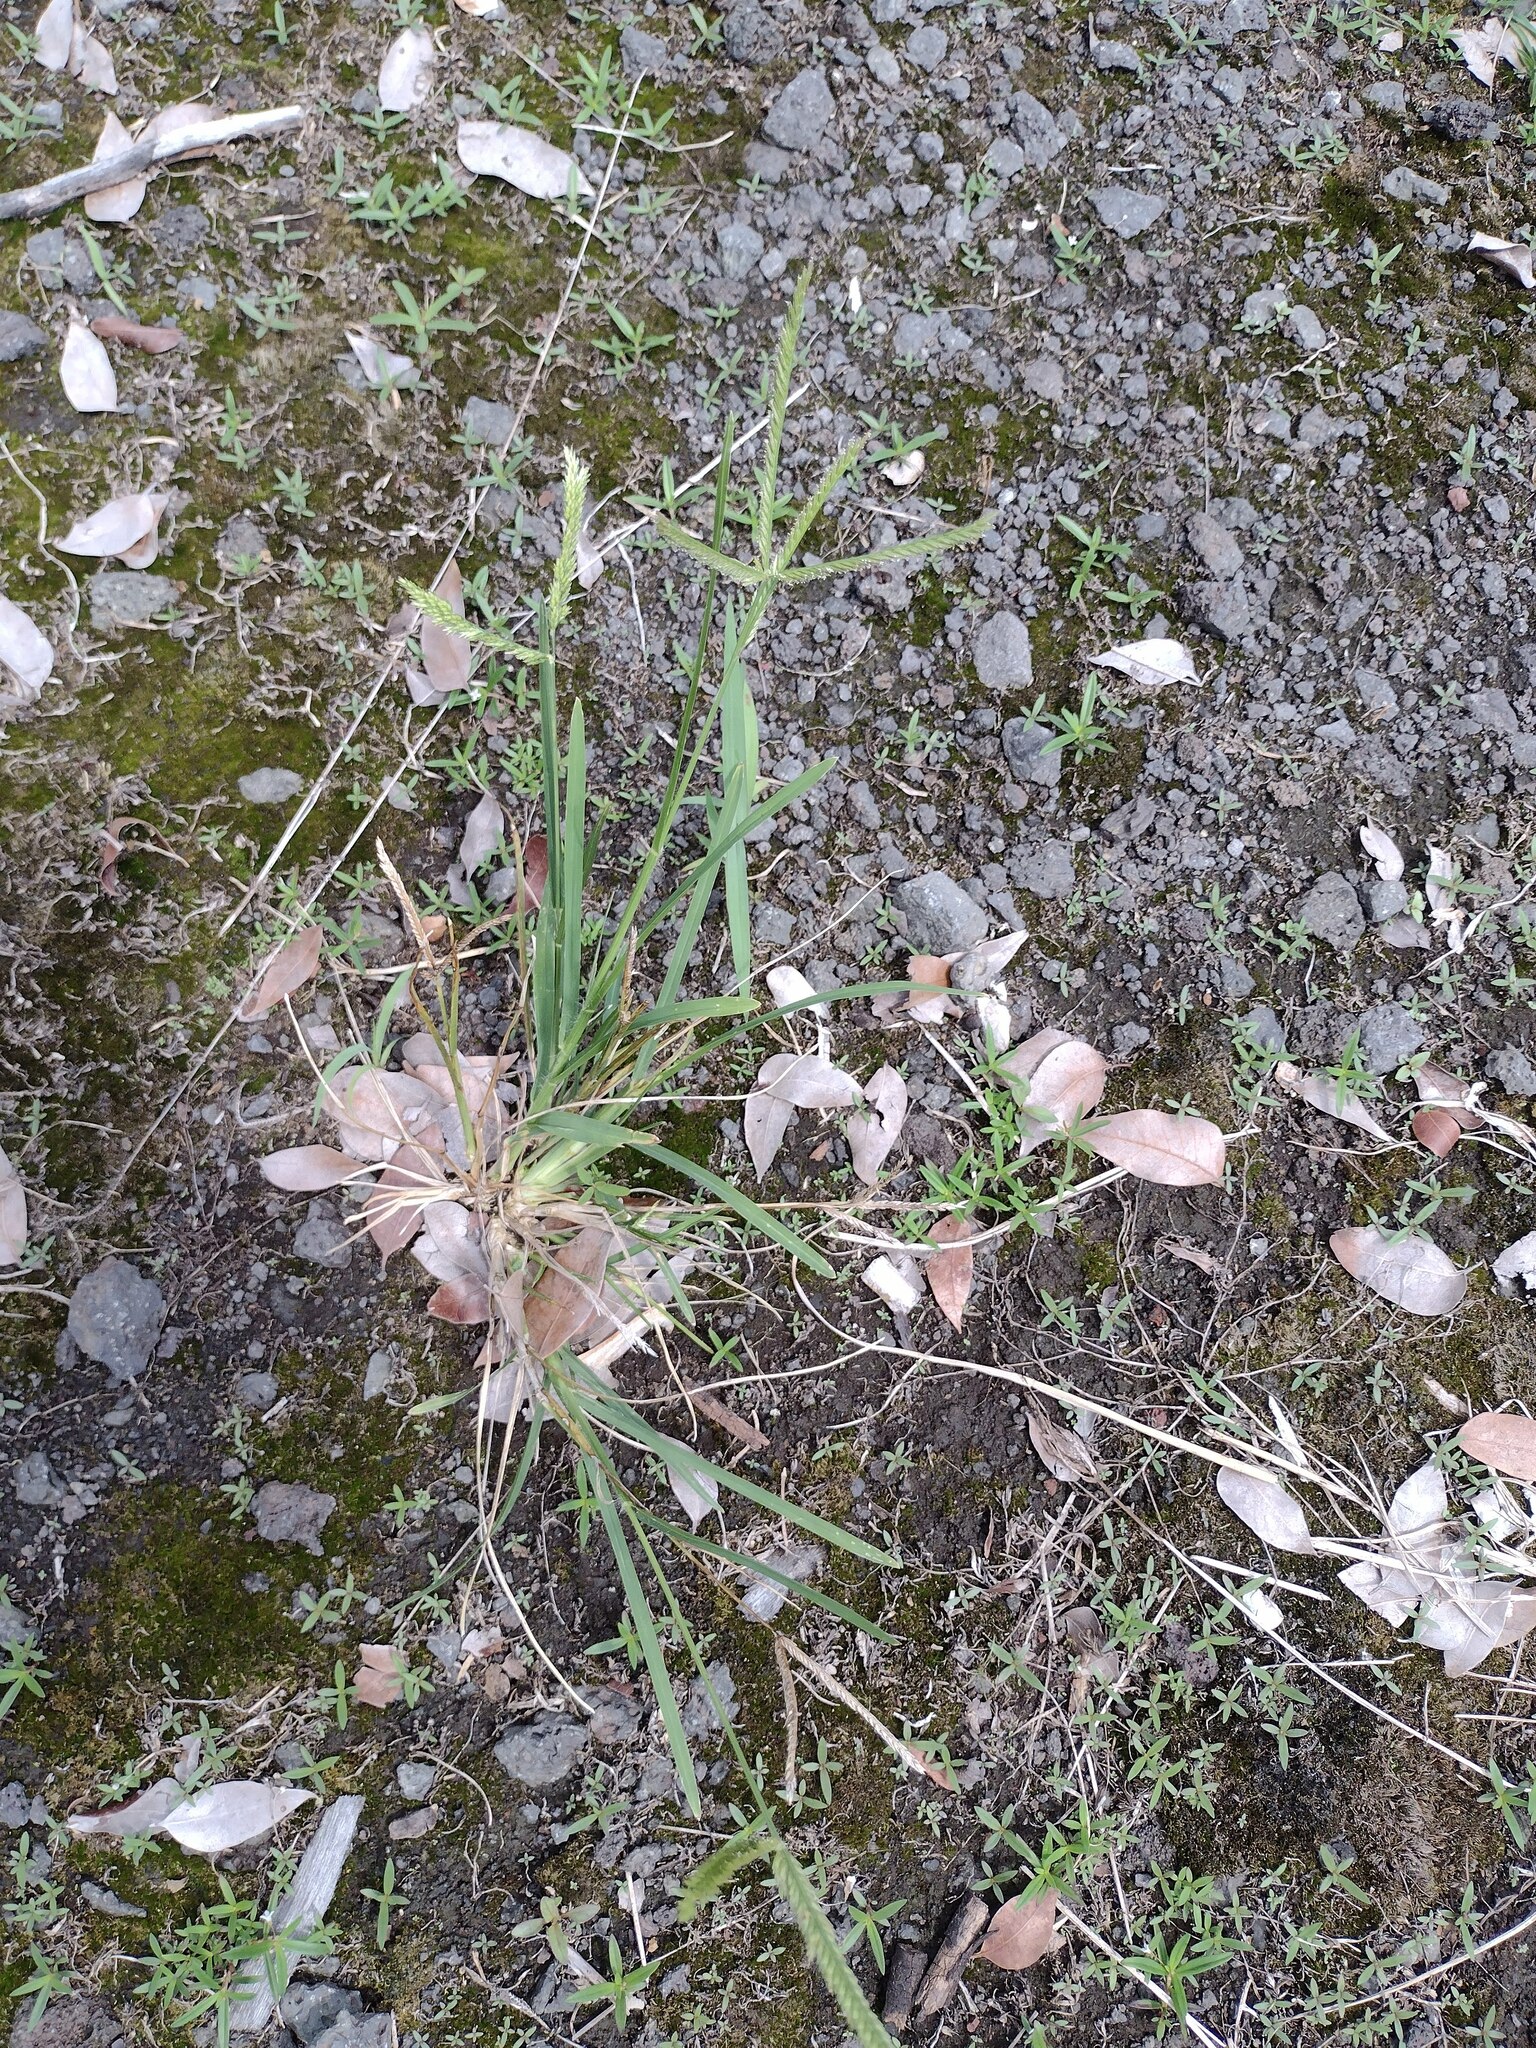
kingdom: Plantae
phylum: Tracheophyta
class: Liliopsida
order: Poales
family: Poaceae
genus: Eleusine
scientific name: Eleusine indica
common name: Yard-grass
